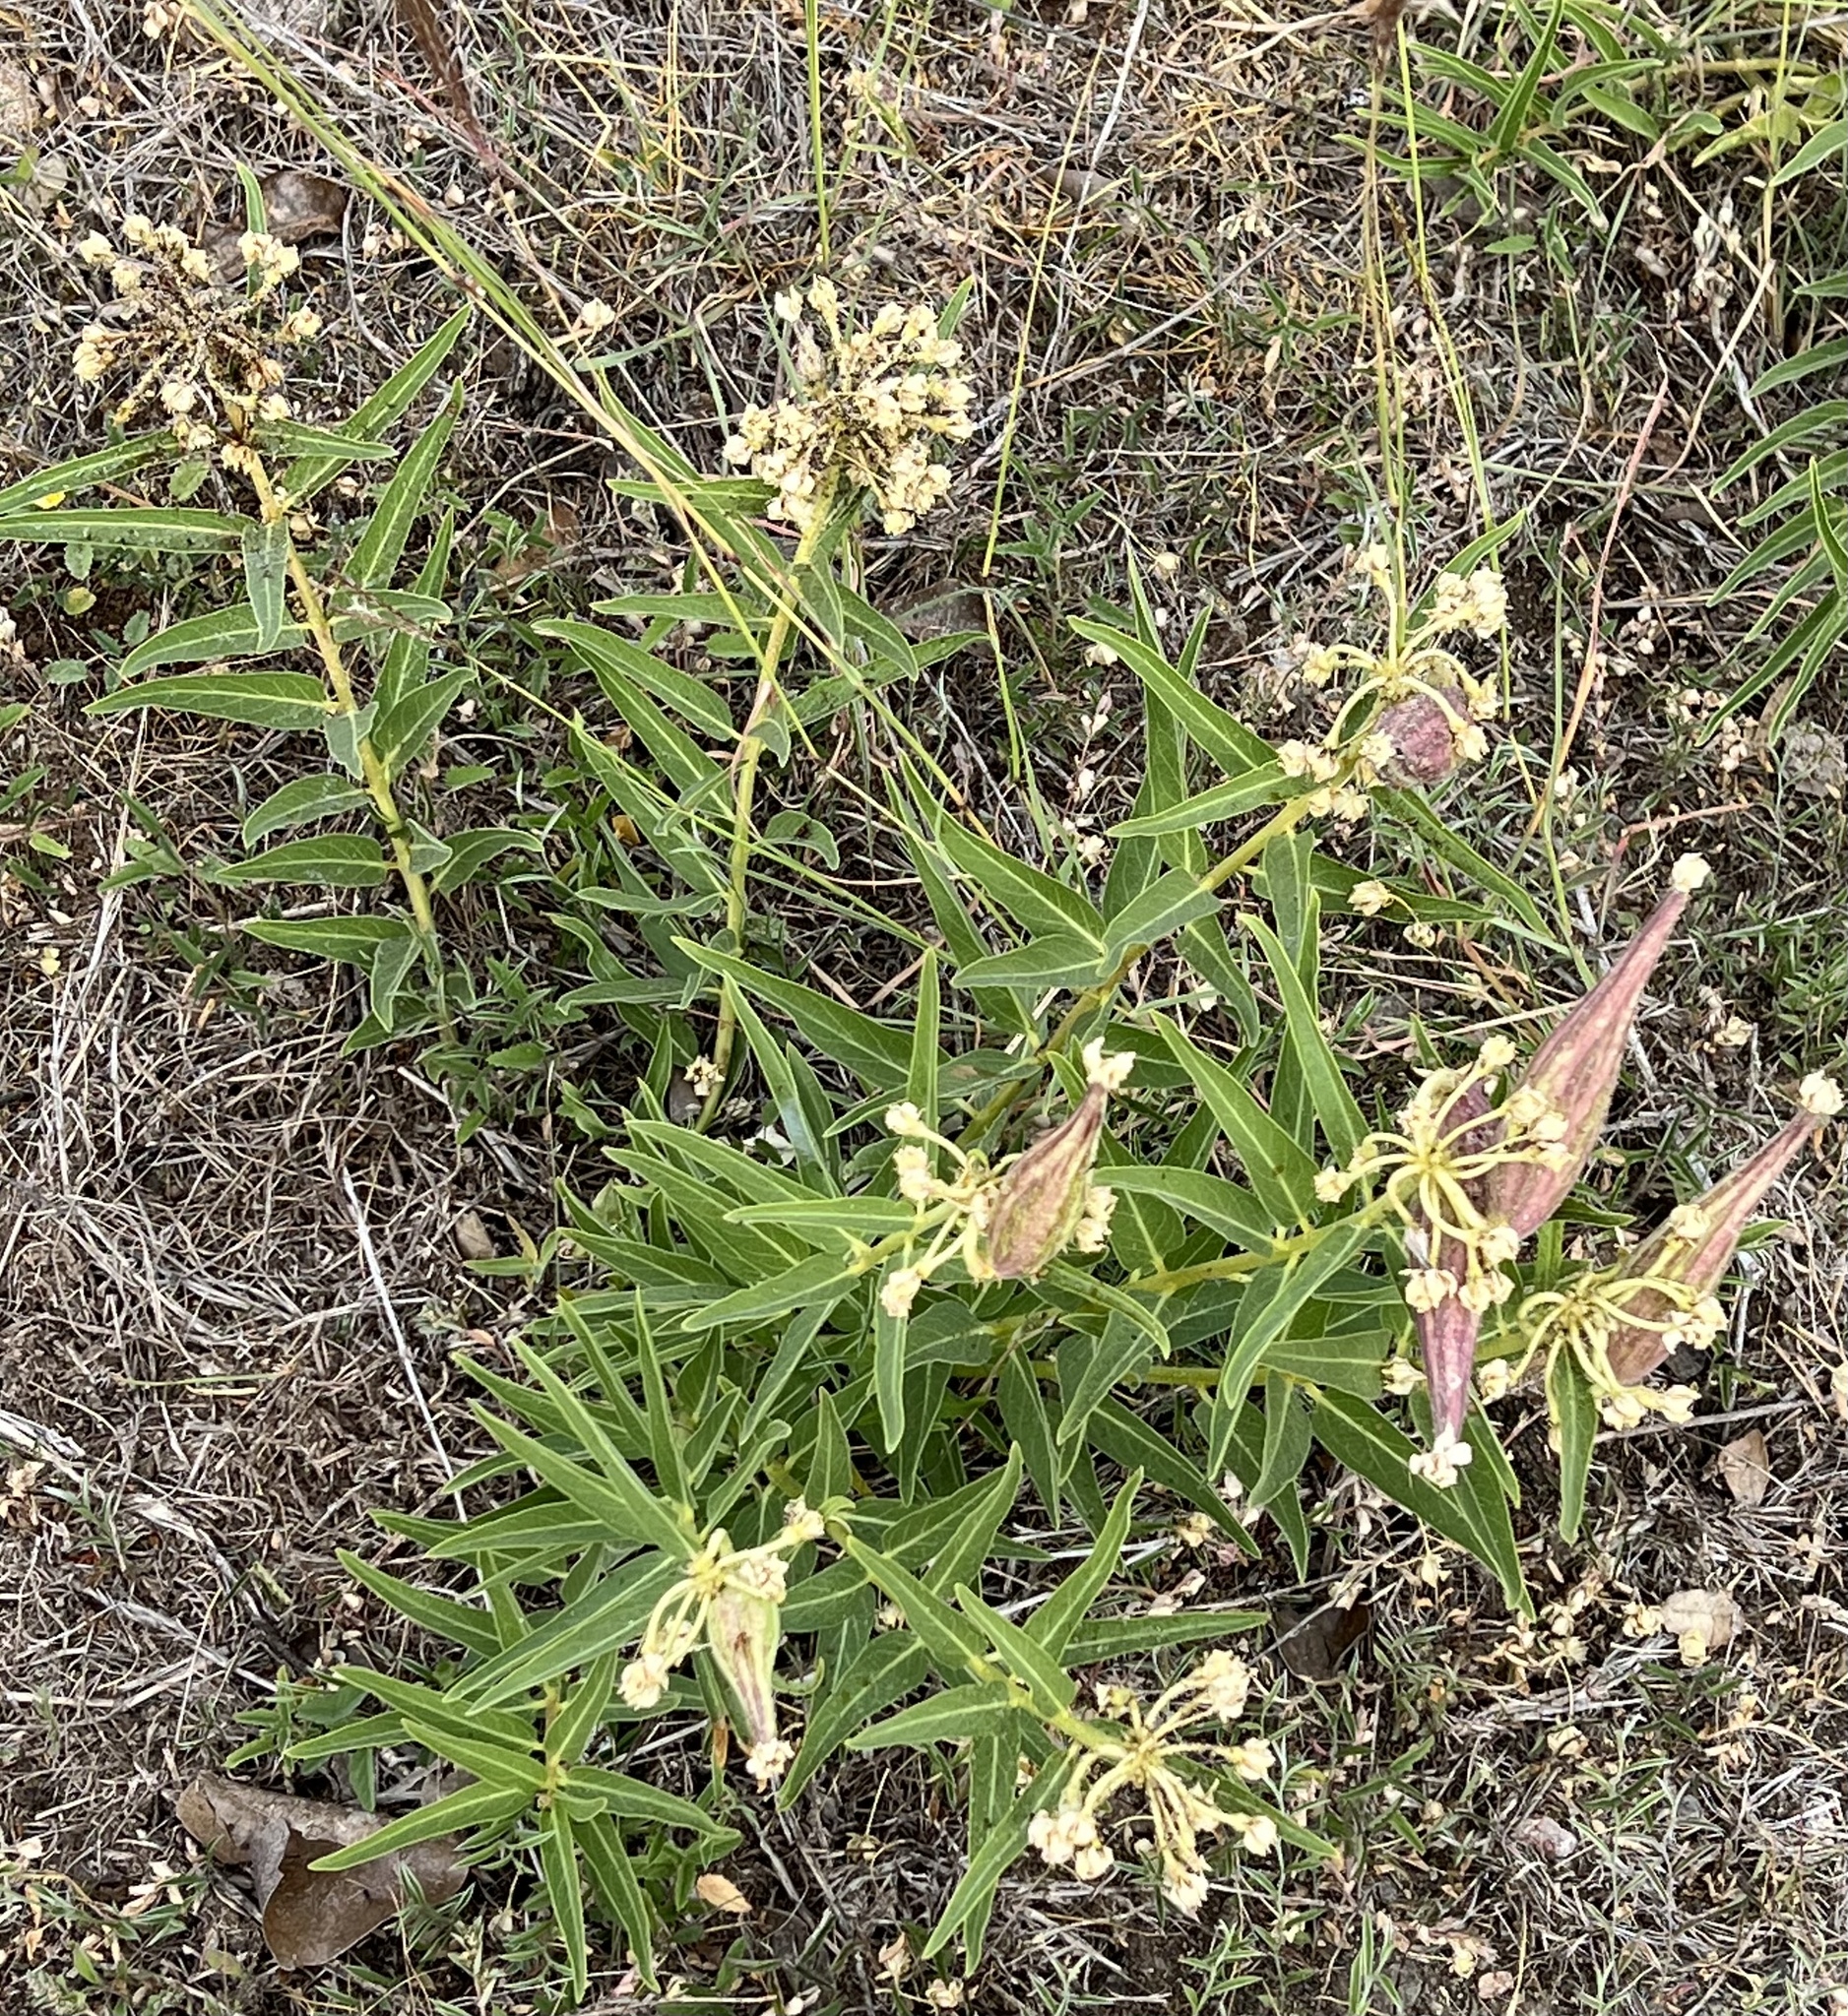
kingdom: Plantae
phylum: Tracheophyta
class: Magnoliopsida
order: Gentianales
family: Apocynaceae
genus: Asclepias
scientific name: Asclepias asperula
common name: Antelope horns
